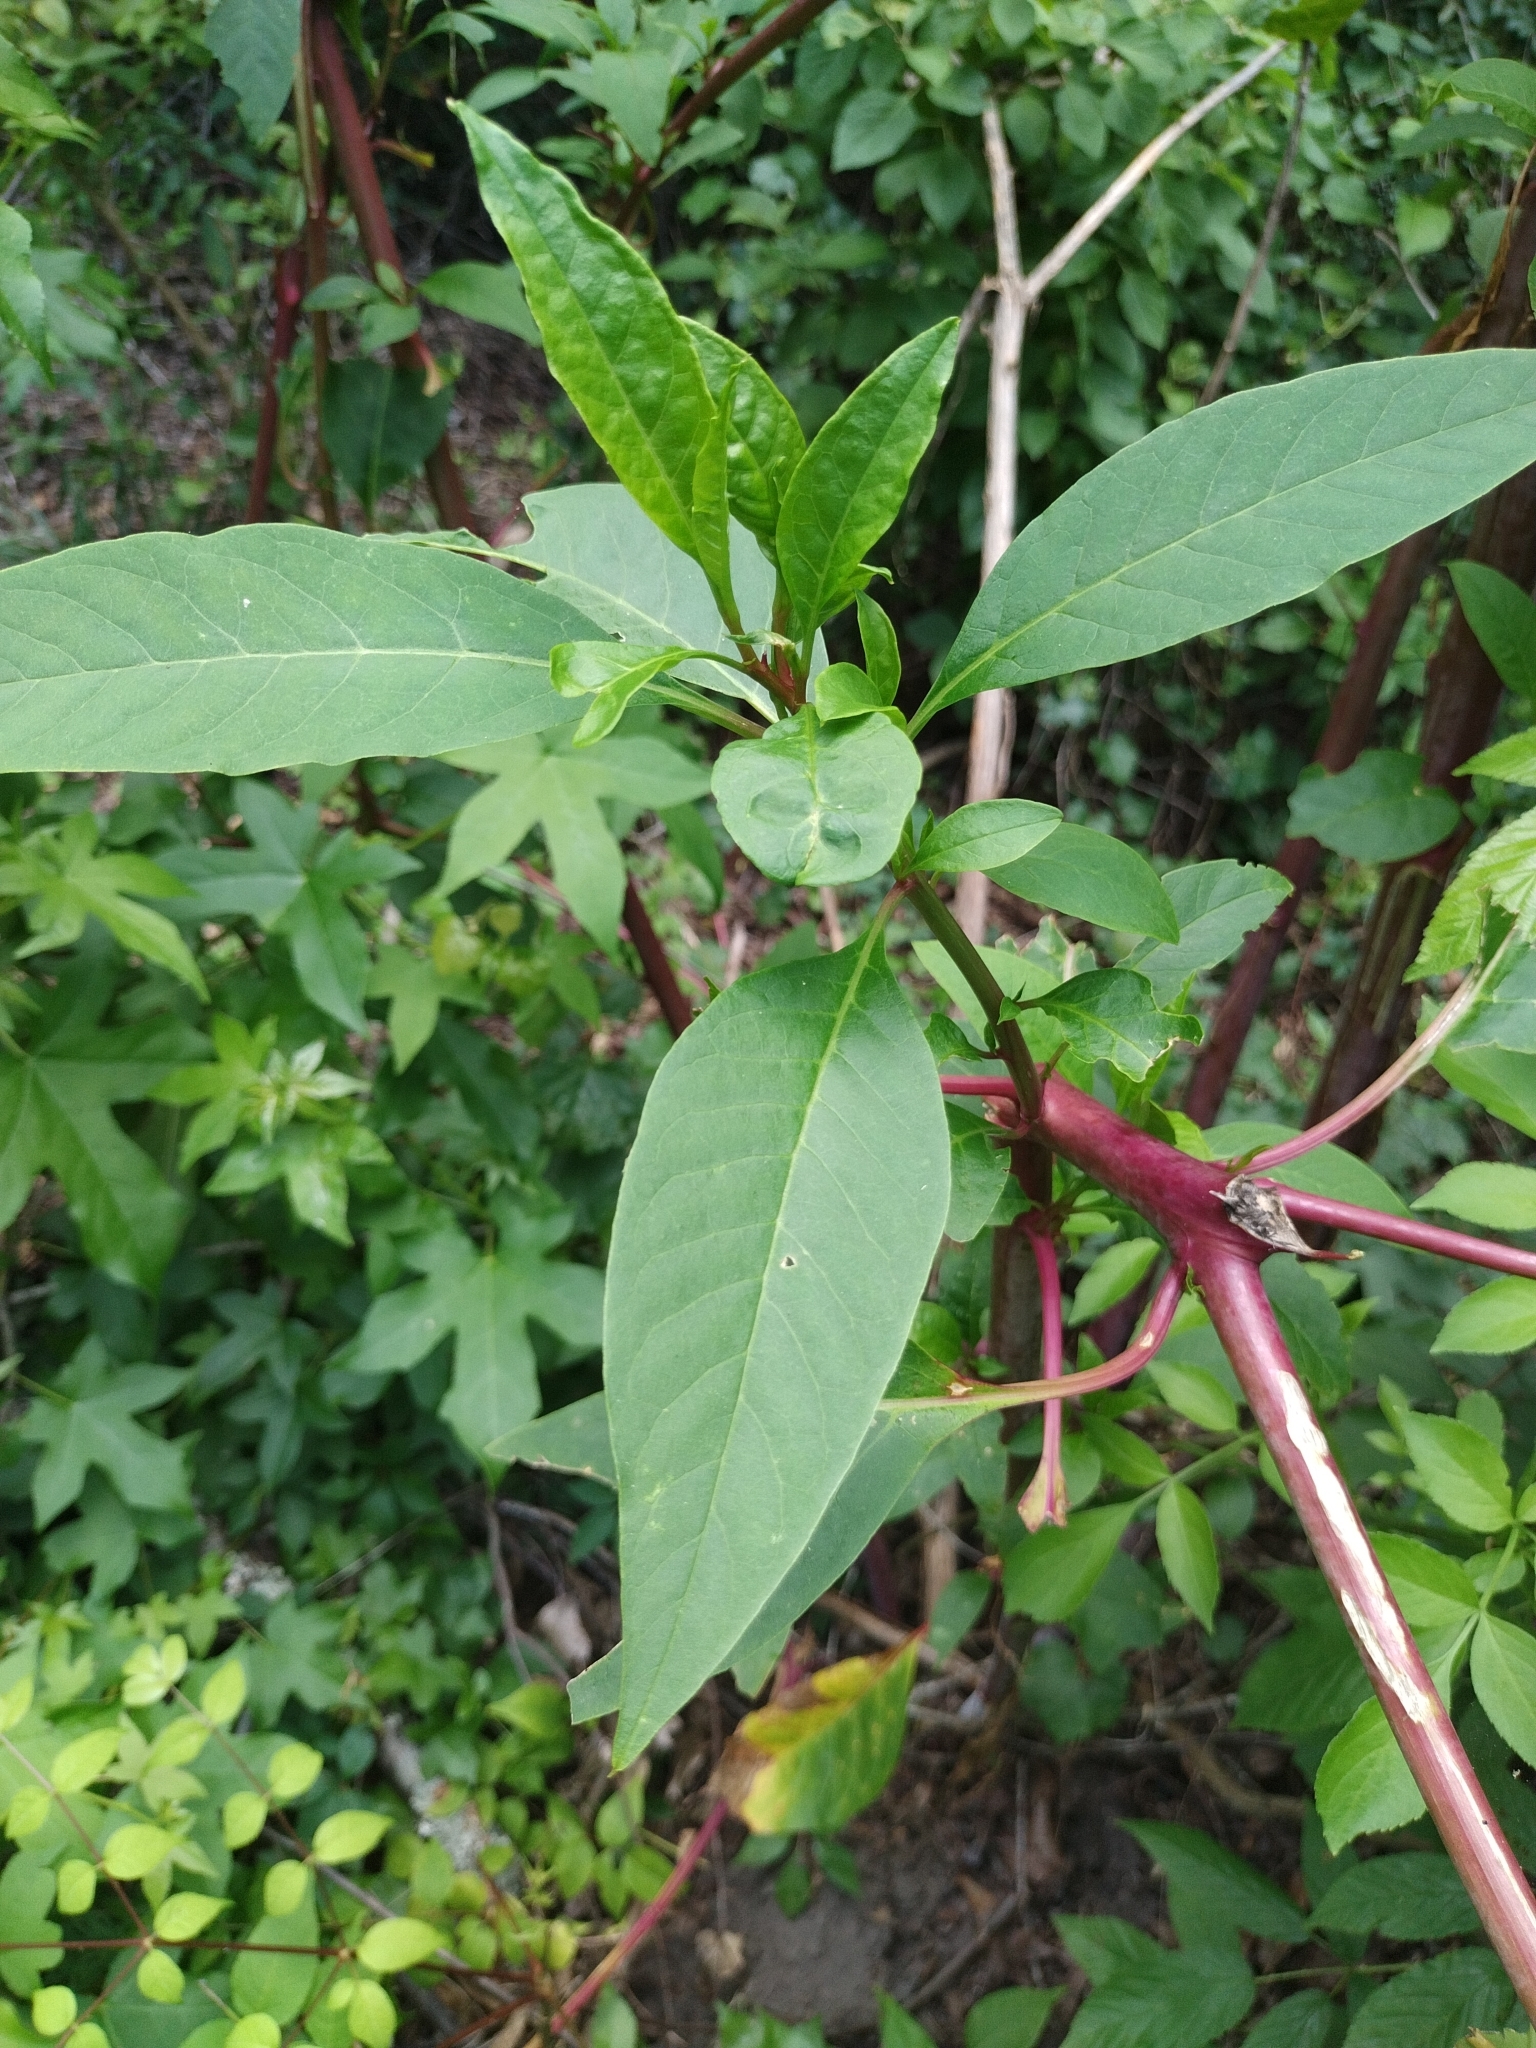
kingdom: Plantae
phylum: Tracheophyta
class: Magnoliopsida
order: Caryophyllales
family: Phytolaccaceae
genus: Phytolacca
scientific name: Phytolacca americana
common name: American pokeweed
